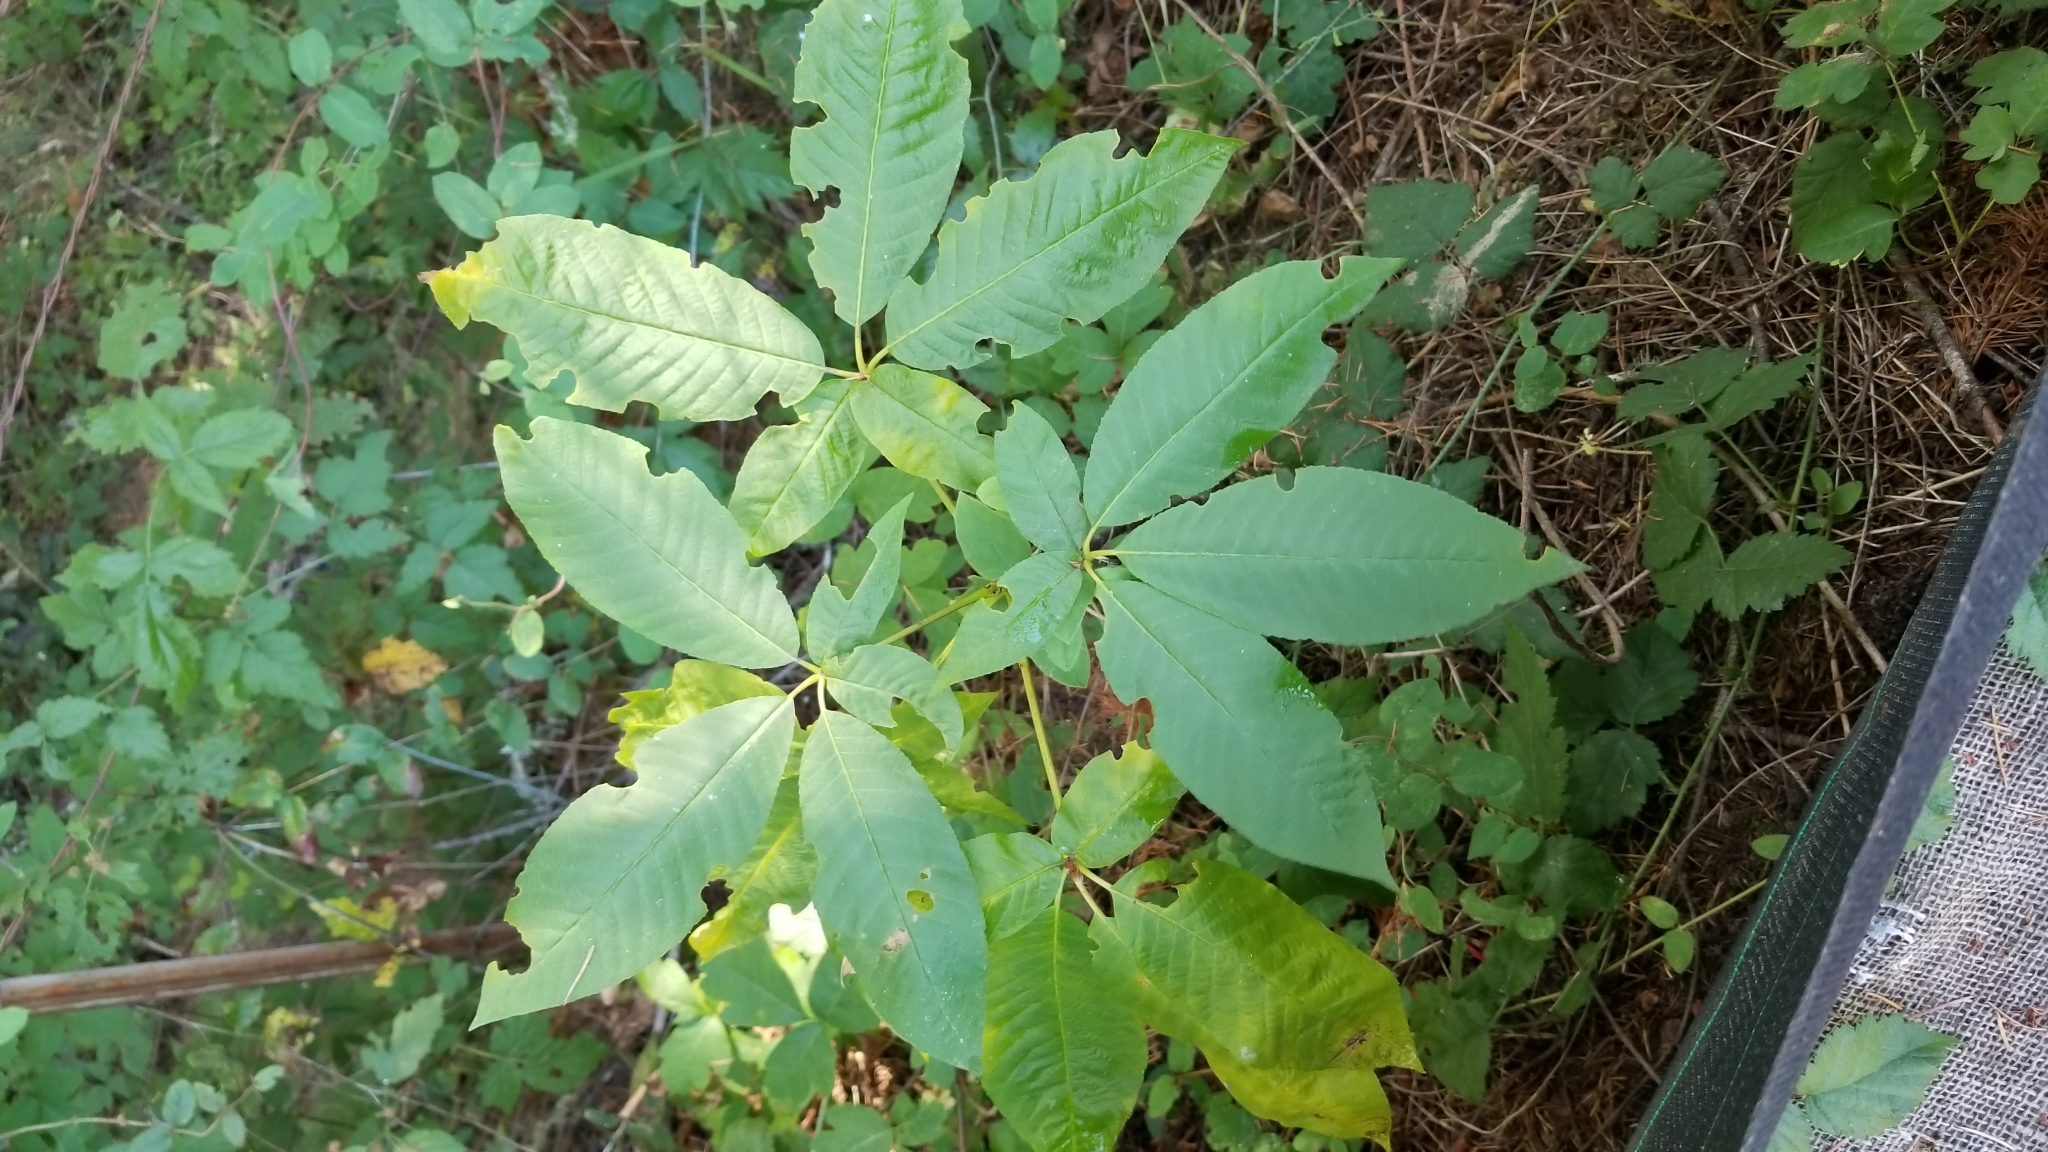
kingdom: Plantae
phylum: Tracheophyta
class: Magnoliopsida
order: Sapindales
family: Sapindaceae
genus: Aesculus
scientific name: Aesculus californica
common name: California buckeye
